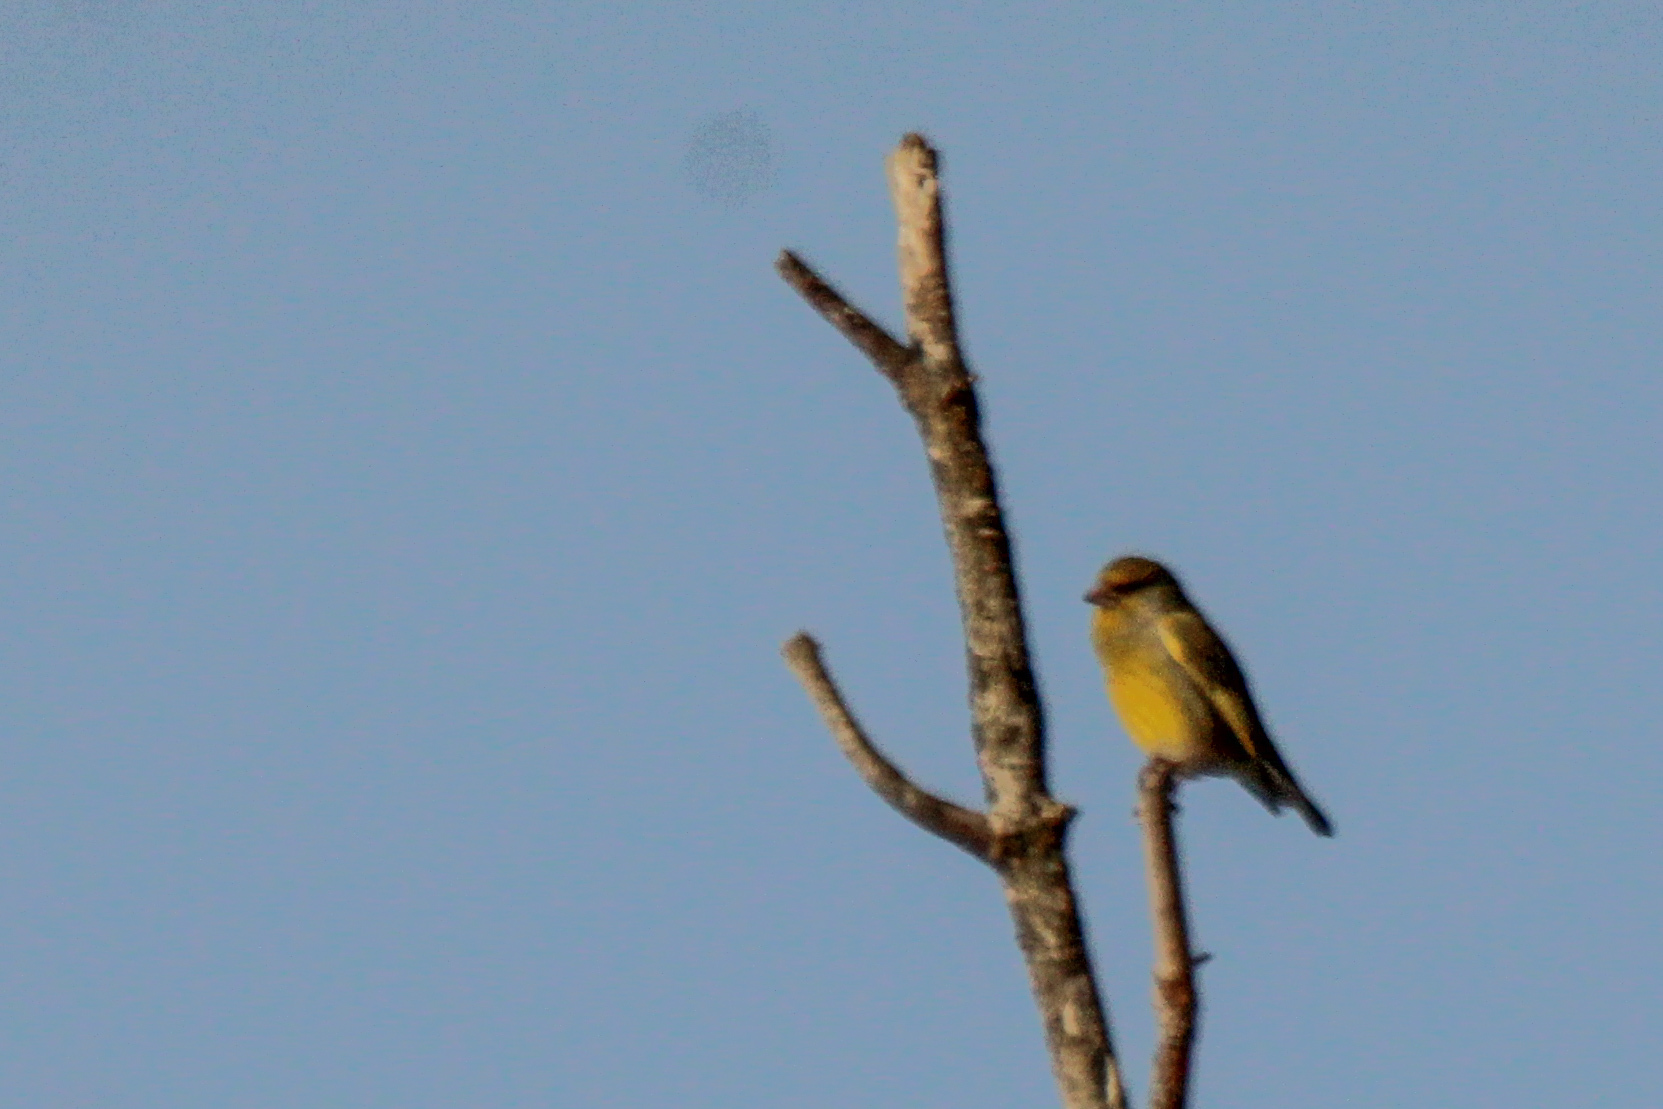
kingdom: Plantae
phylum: Tracheophyta
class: Liliopsida
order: Poales
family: Poaceae
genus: Chloris
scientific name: Chloris chloris
